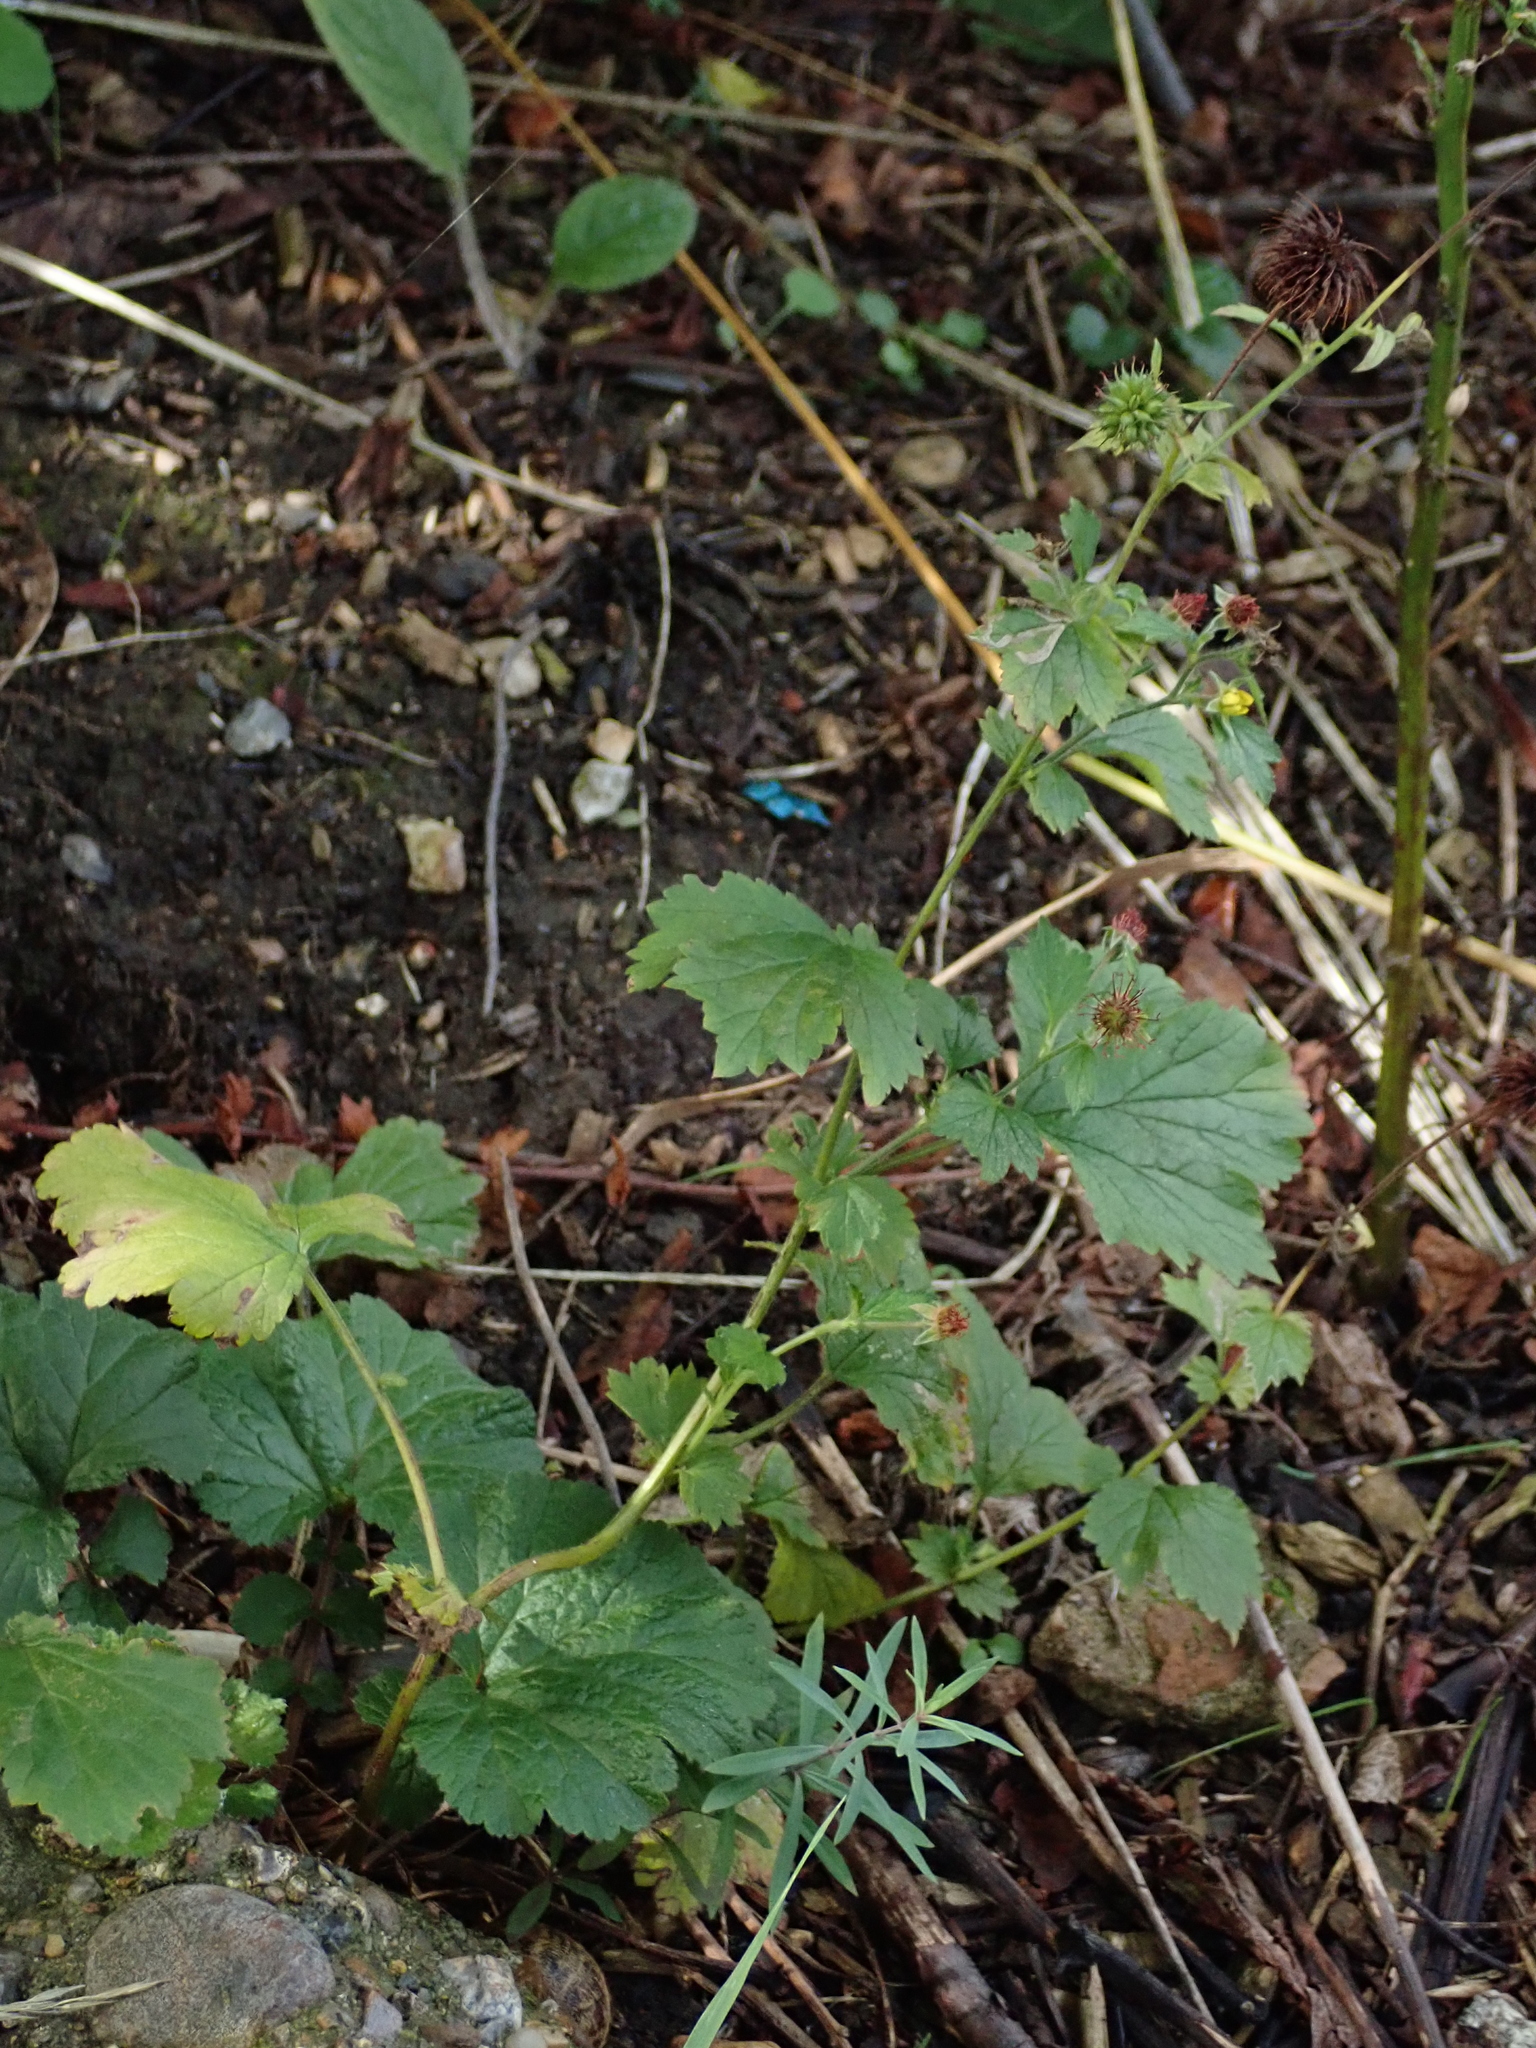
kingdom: Plantae
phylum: Tracheophyta
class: Magnoliopsida
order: Rosales
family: Rosaceae
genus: Geum
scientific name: Geum urbanum
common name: Wood avens
